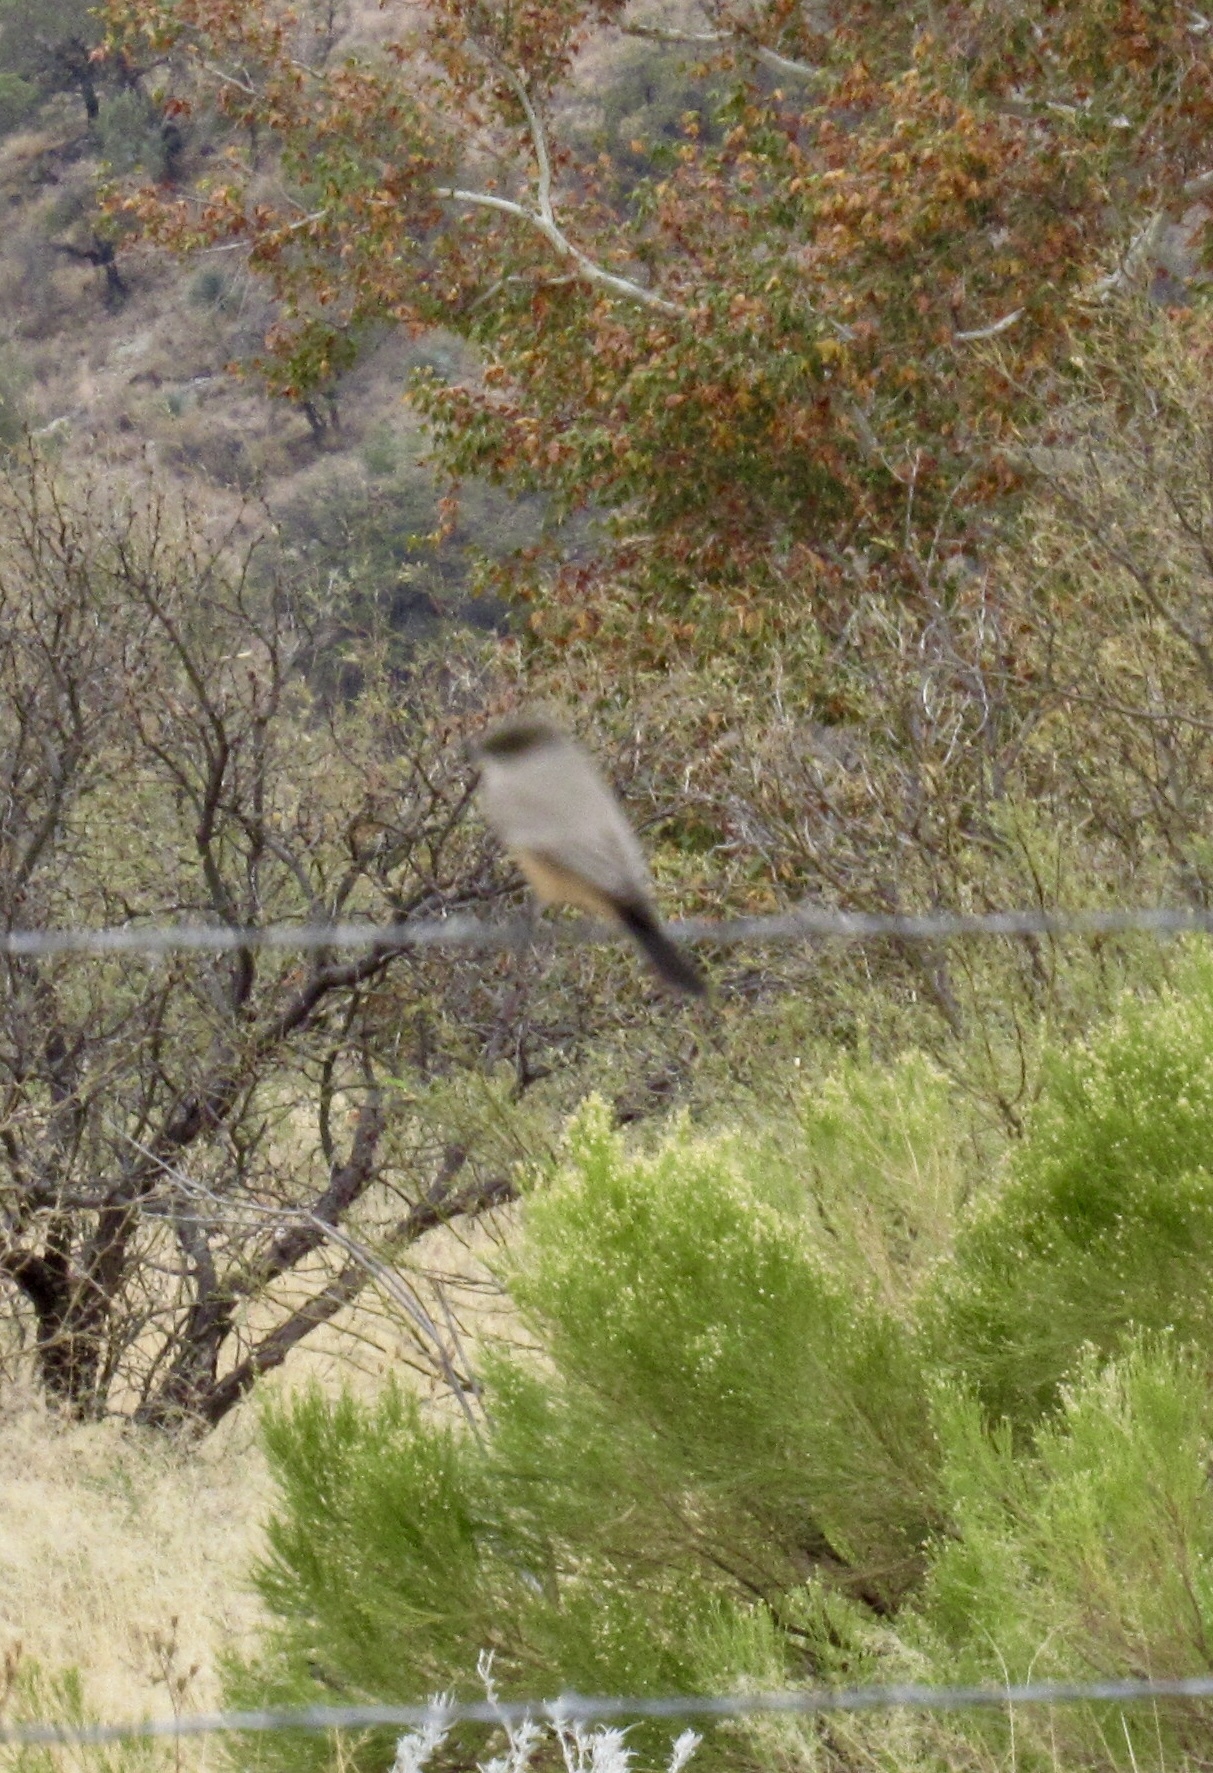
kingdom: Animalia
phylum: Chordata
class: Aves
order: Passeriformes
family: Tyrannidae
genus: Sayornis
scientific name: Sayornis saya
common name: Say's phoebe
